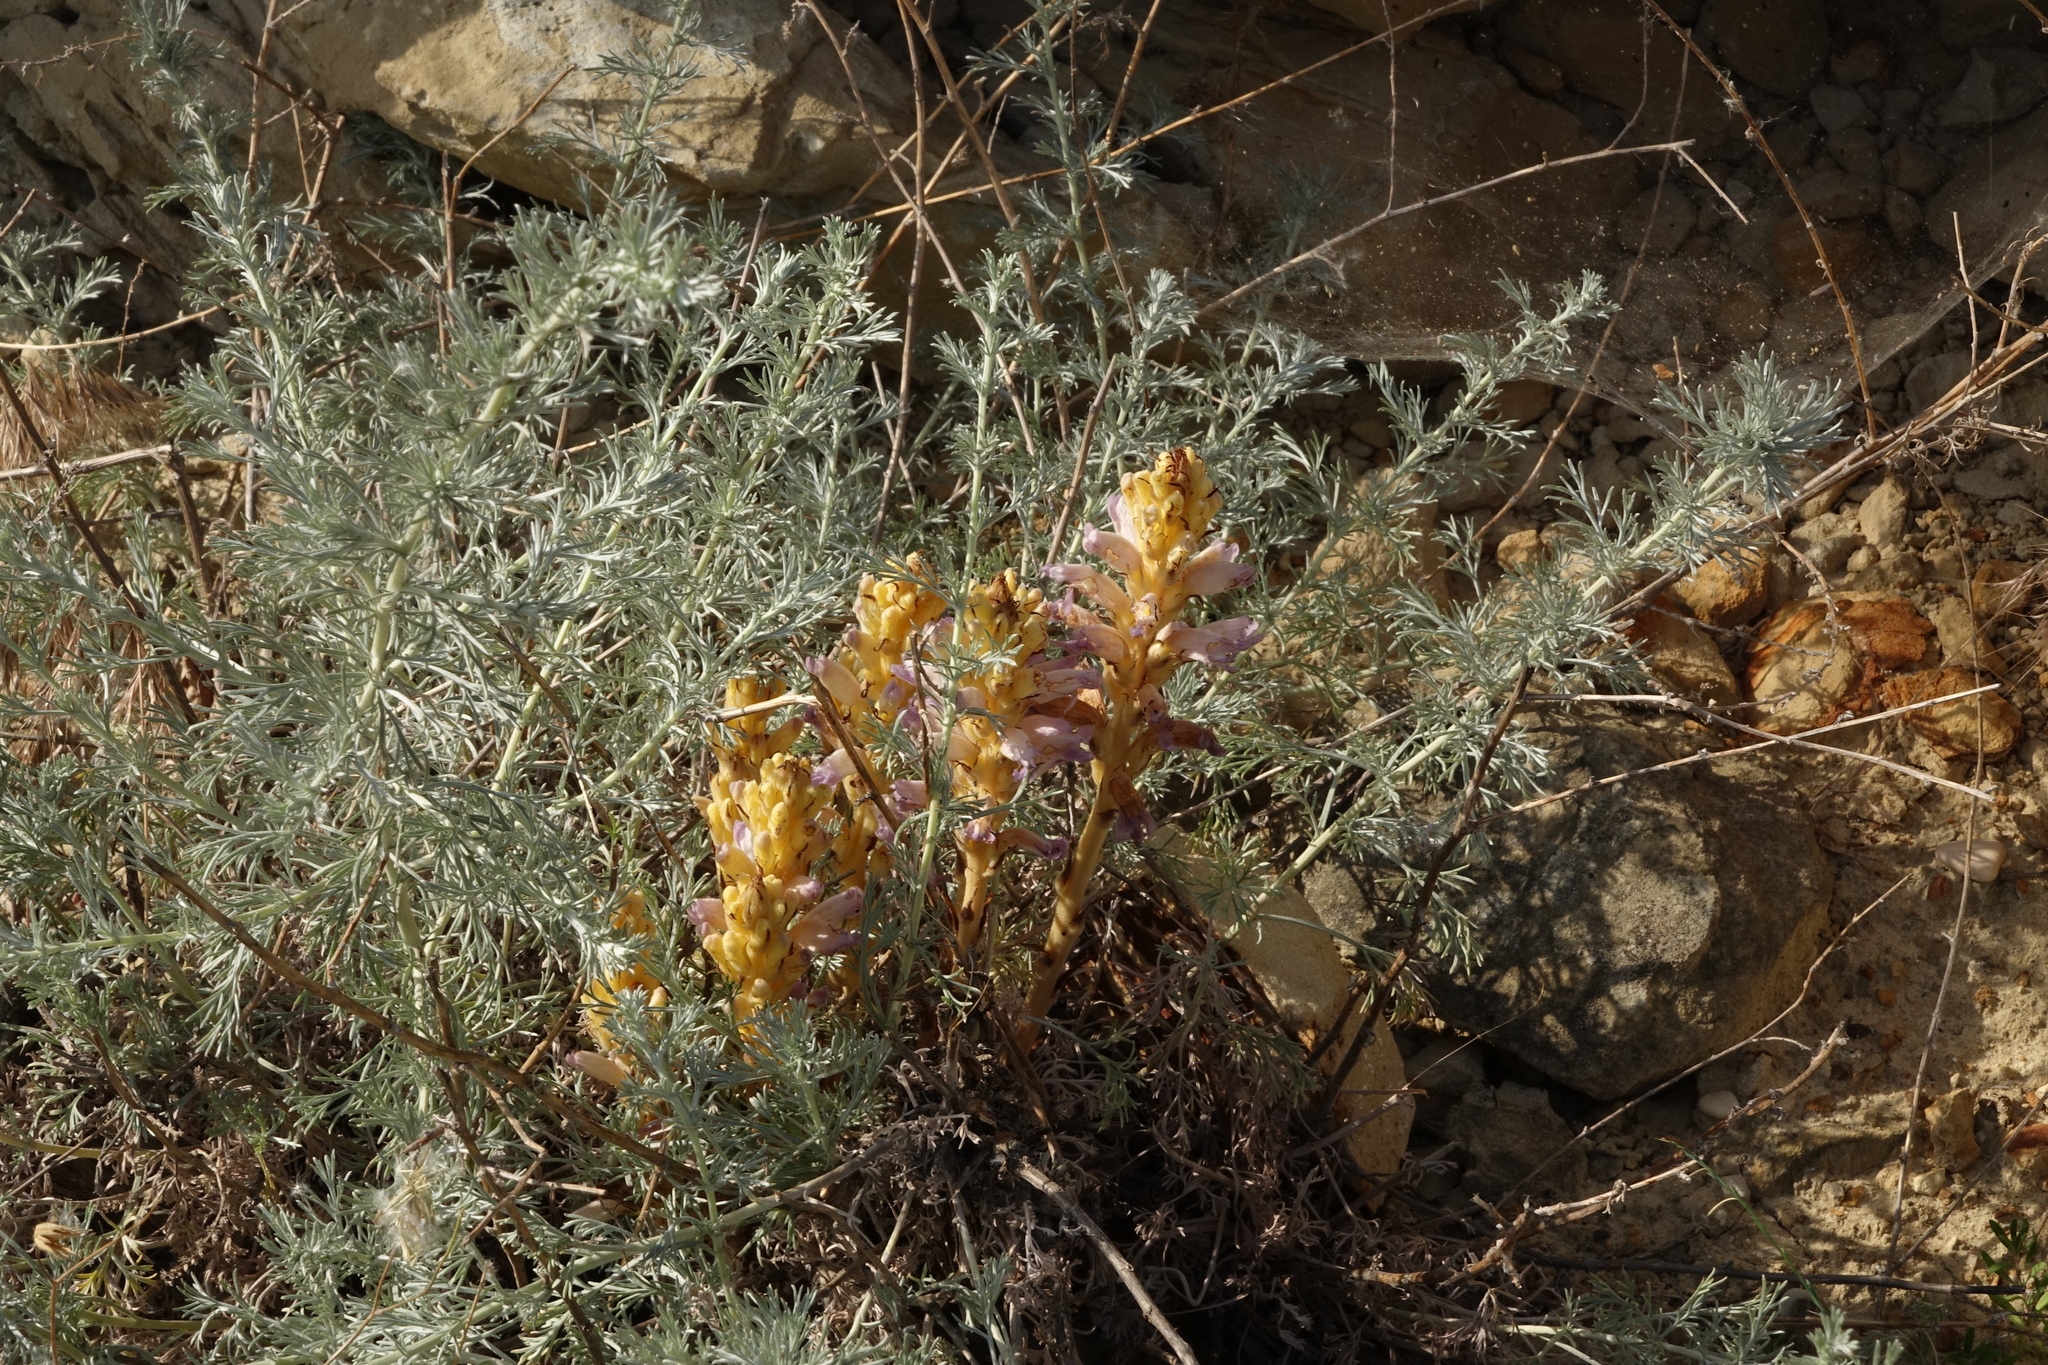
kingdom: Plantae
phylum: Tracheophyta
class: Magnoliopsida
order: Lamiales
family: Orobanchaceae
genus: Phelipanche
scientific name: Phelipanche arenaria
